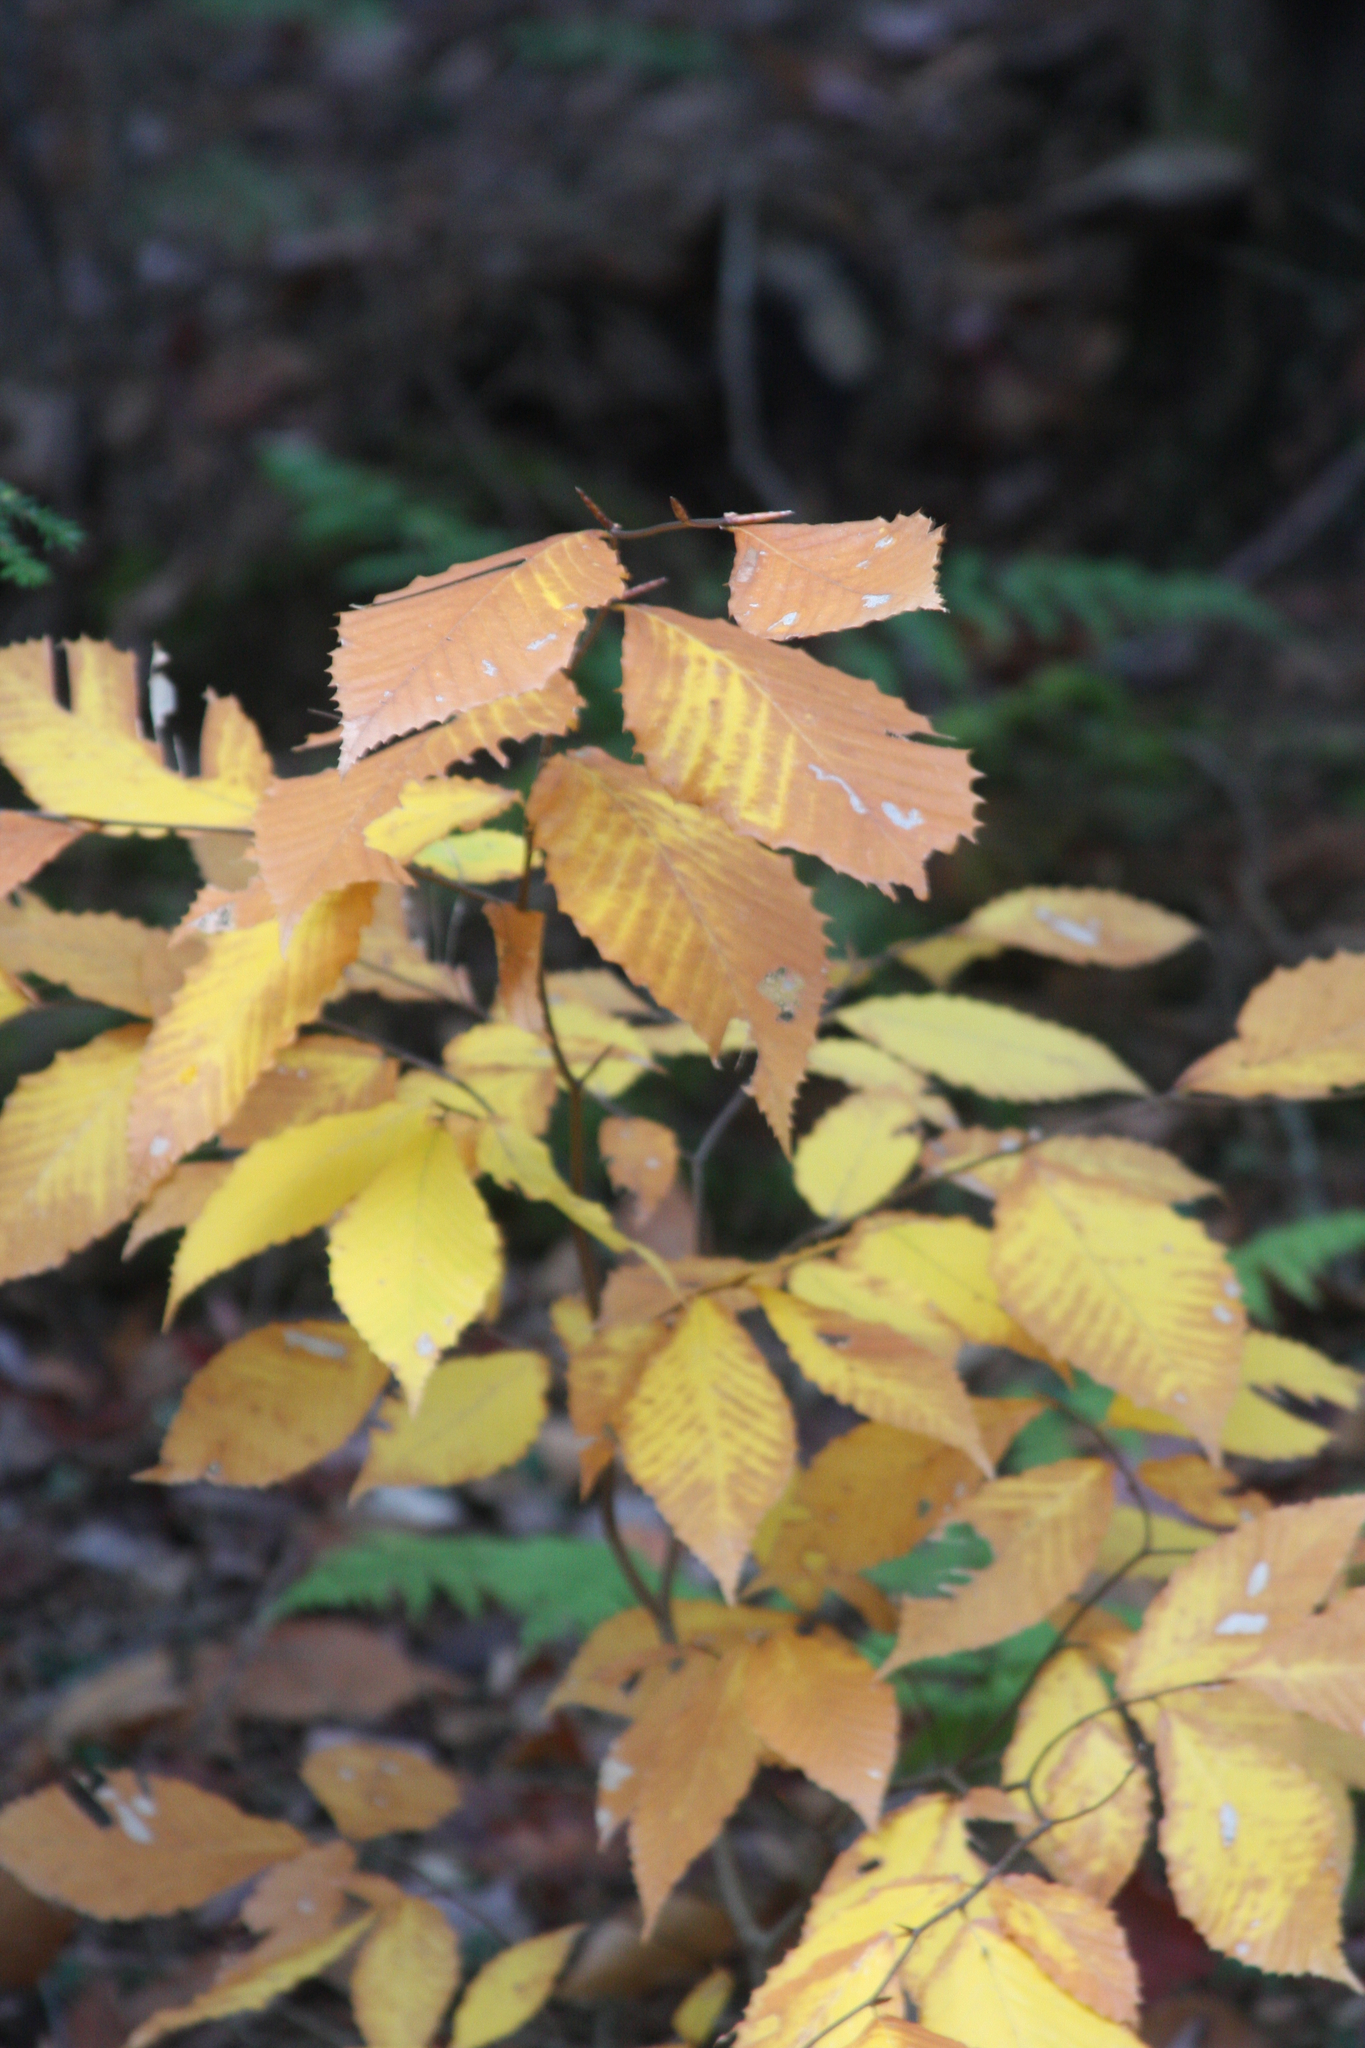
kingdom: Plantae
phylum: Tracheophyta
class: Magnoliopsida
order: Fagales
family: Fagaceae
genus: Fagus
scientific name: Fagus grandifolia
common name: American beech
